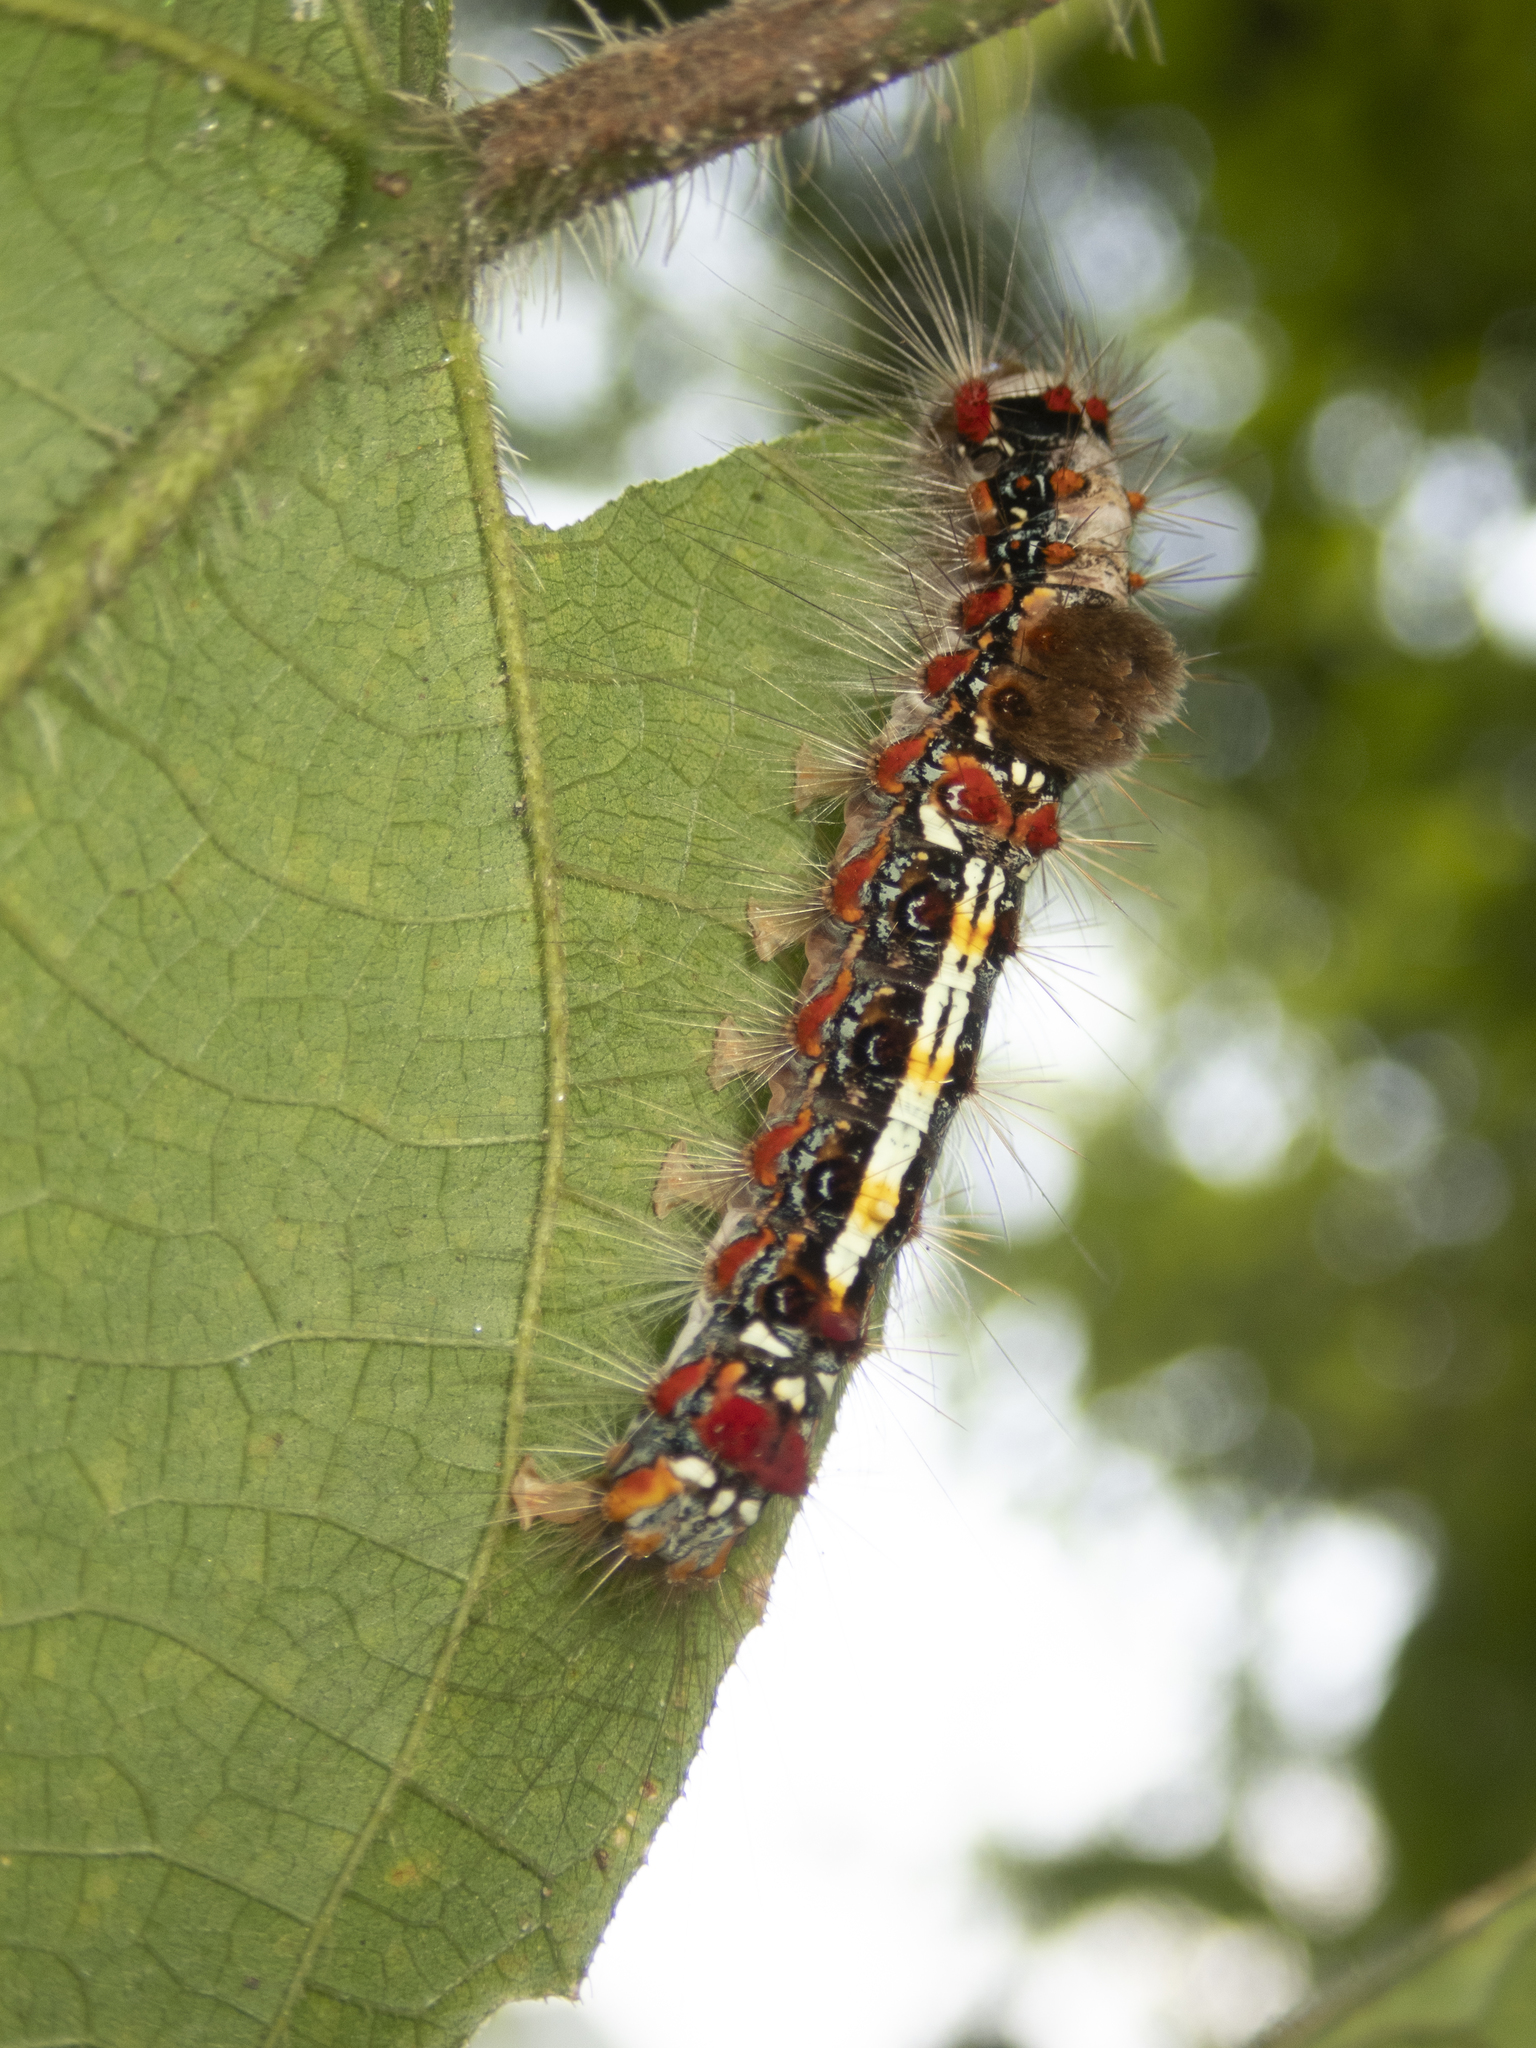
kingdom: Animalia
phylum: Arthropoda
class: Insecta
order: Lepidoptera
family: Erebidae
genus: Perina
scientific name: Perina nuda
